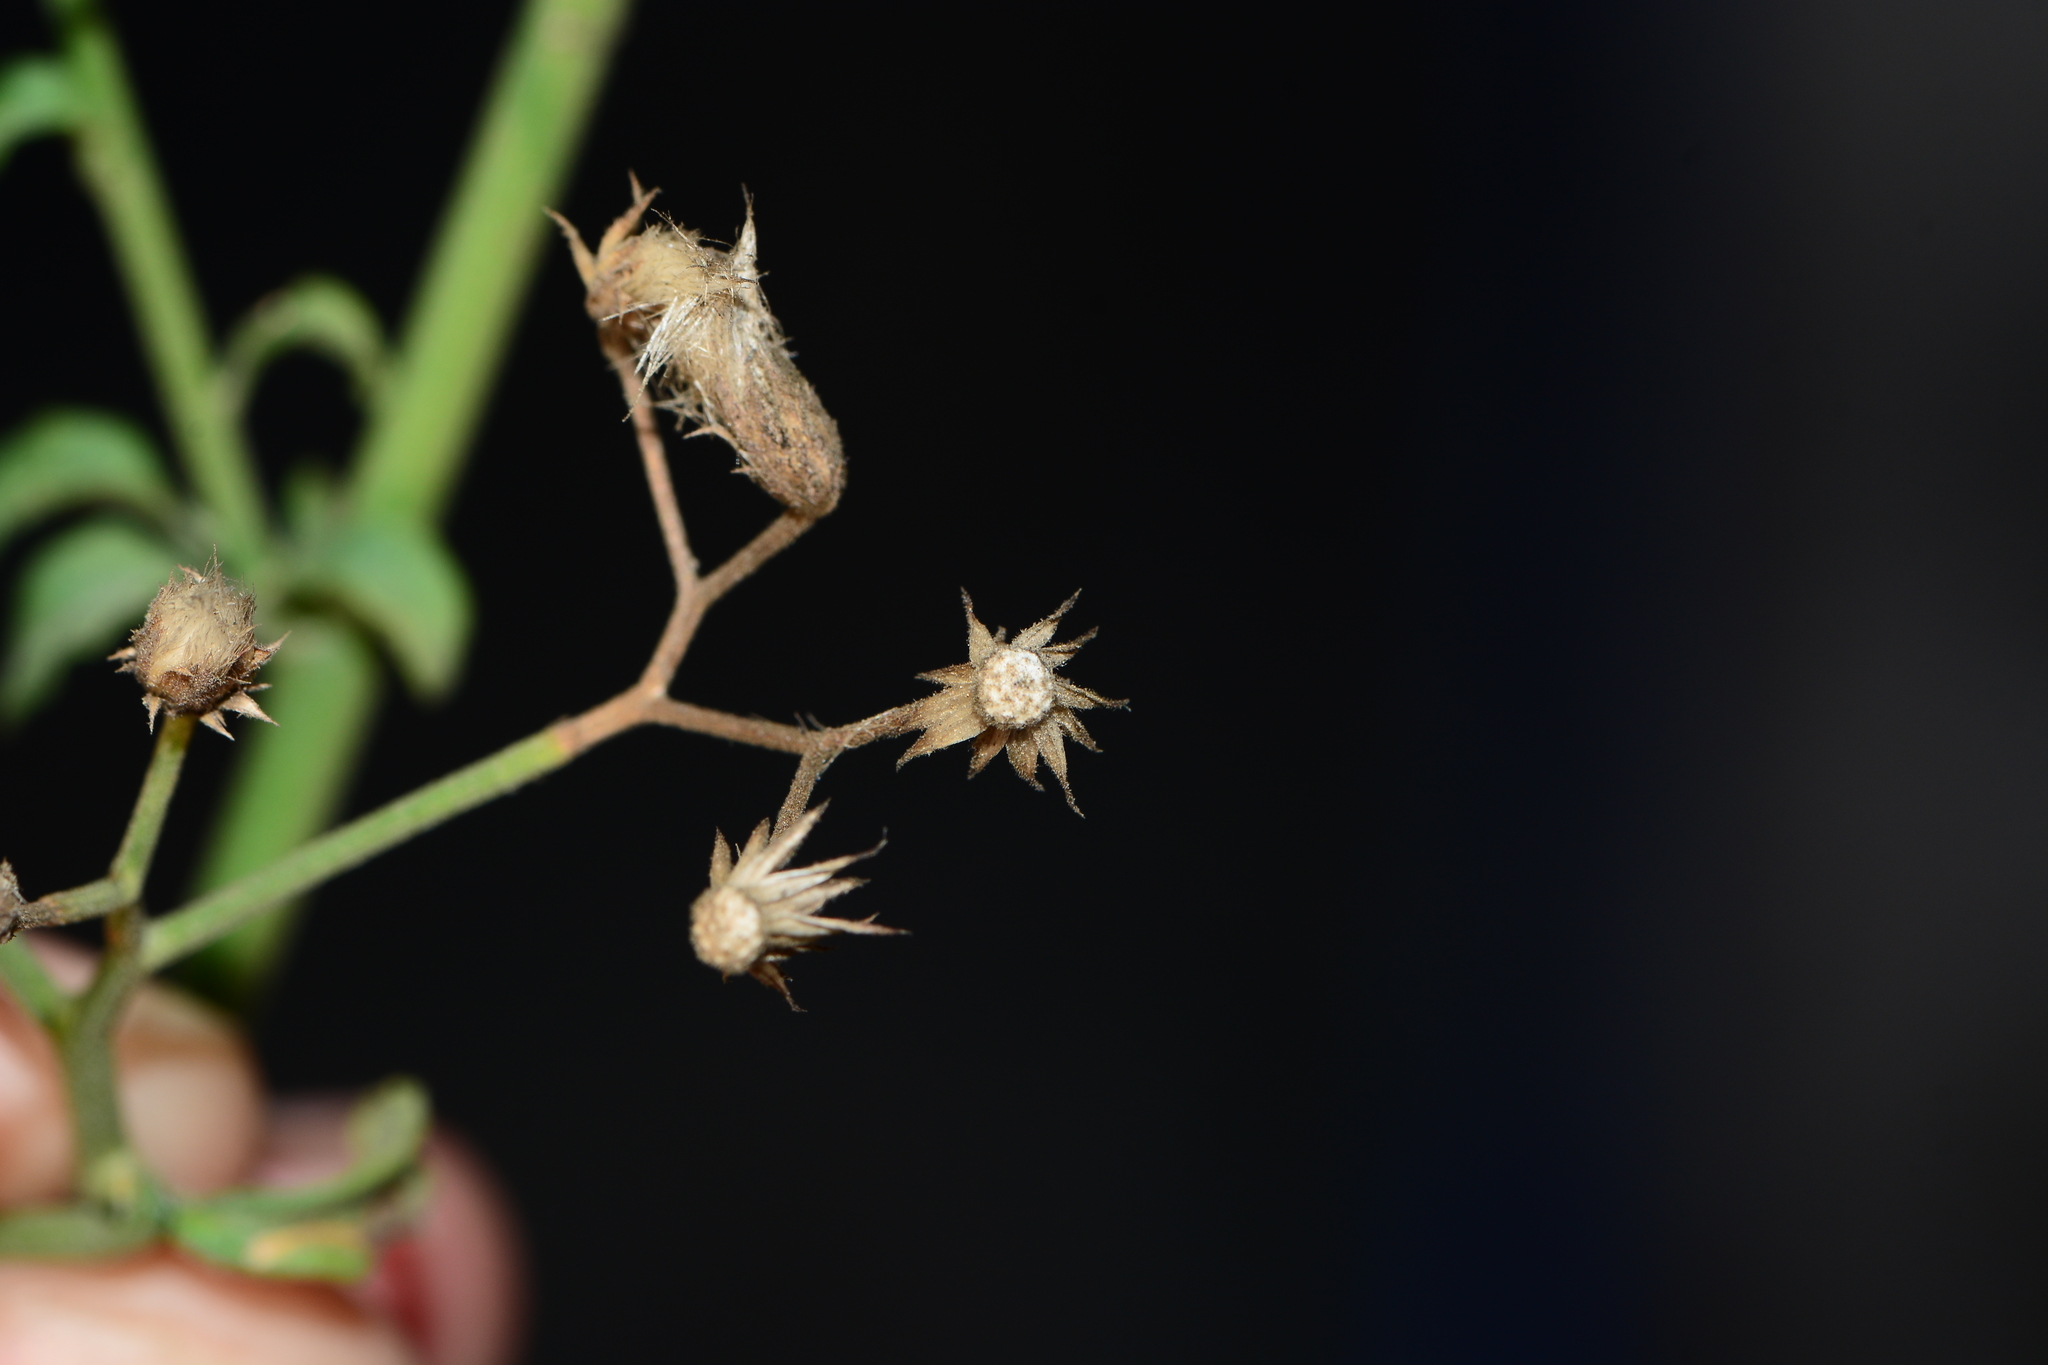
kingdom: Plantae
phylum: Tracheophyta
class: Magnoliopsida
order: Asterales
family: Asteraceae
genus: Cyanthillium
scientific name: Cyanthillium cinereum
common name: Little ironweed
